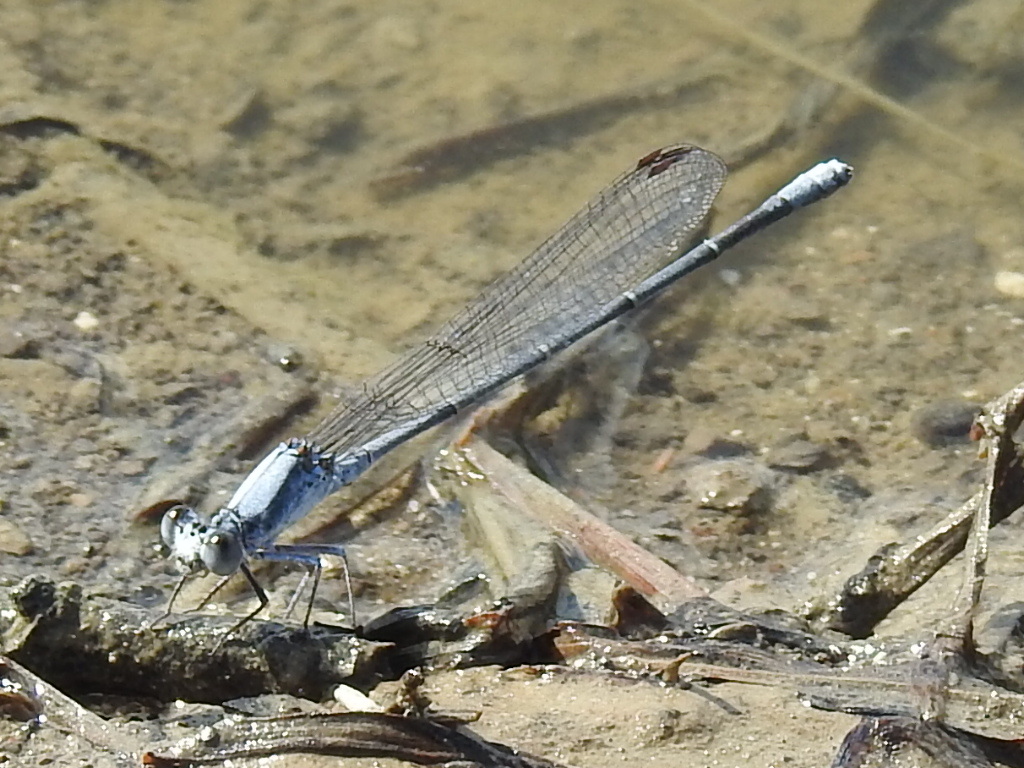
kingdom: Animalia
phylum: Arthropoda
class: Insecta
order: Odonata
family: Coenagrionidae
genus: Argia
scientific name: Argia moesta
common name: Powdered dancer
